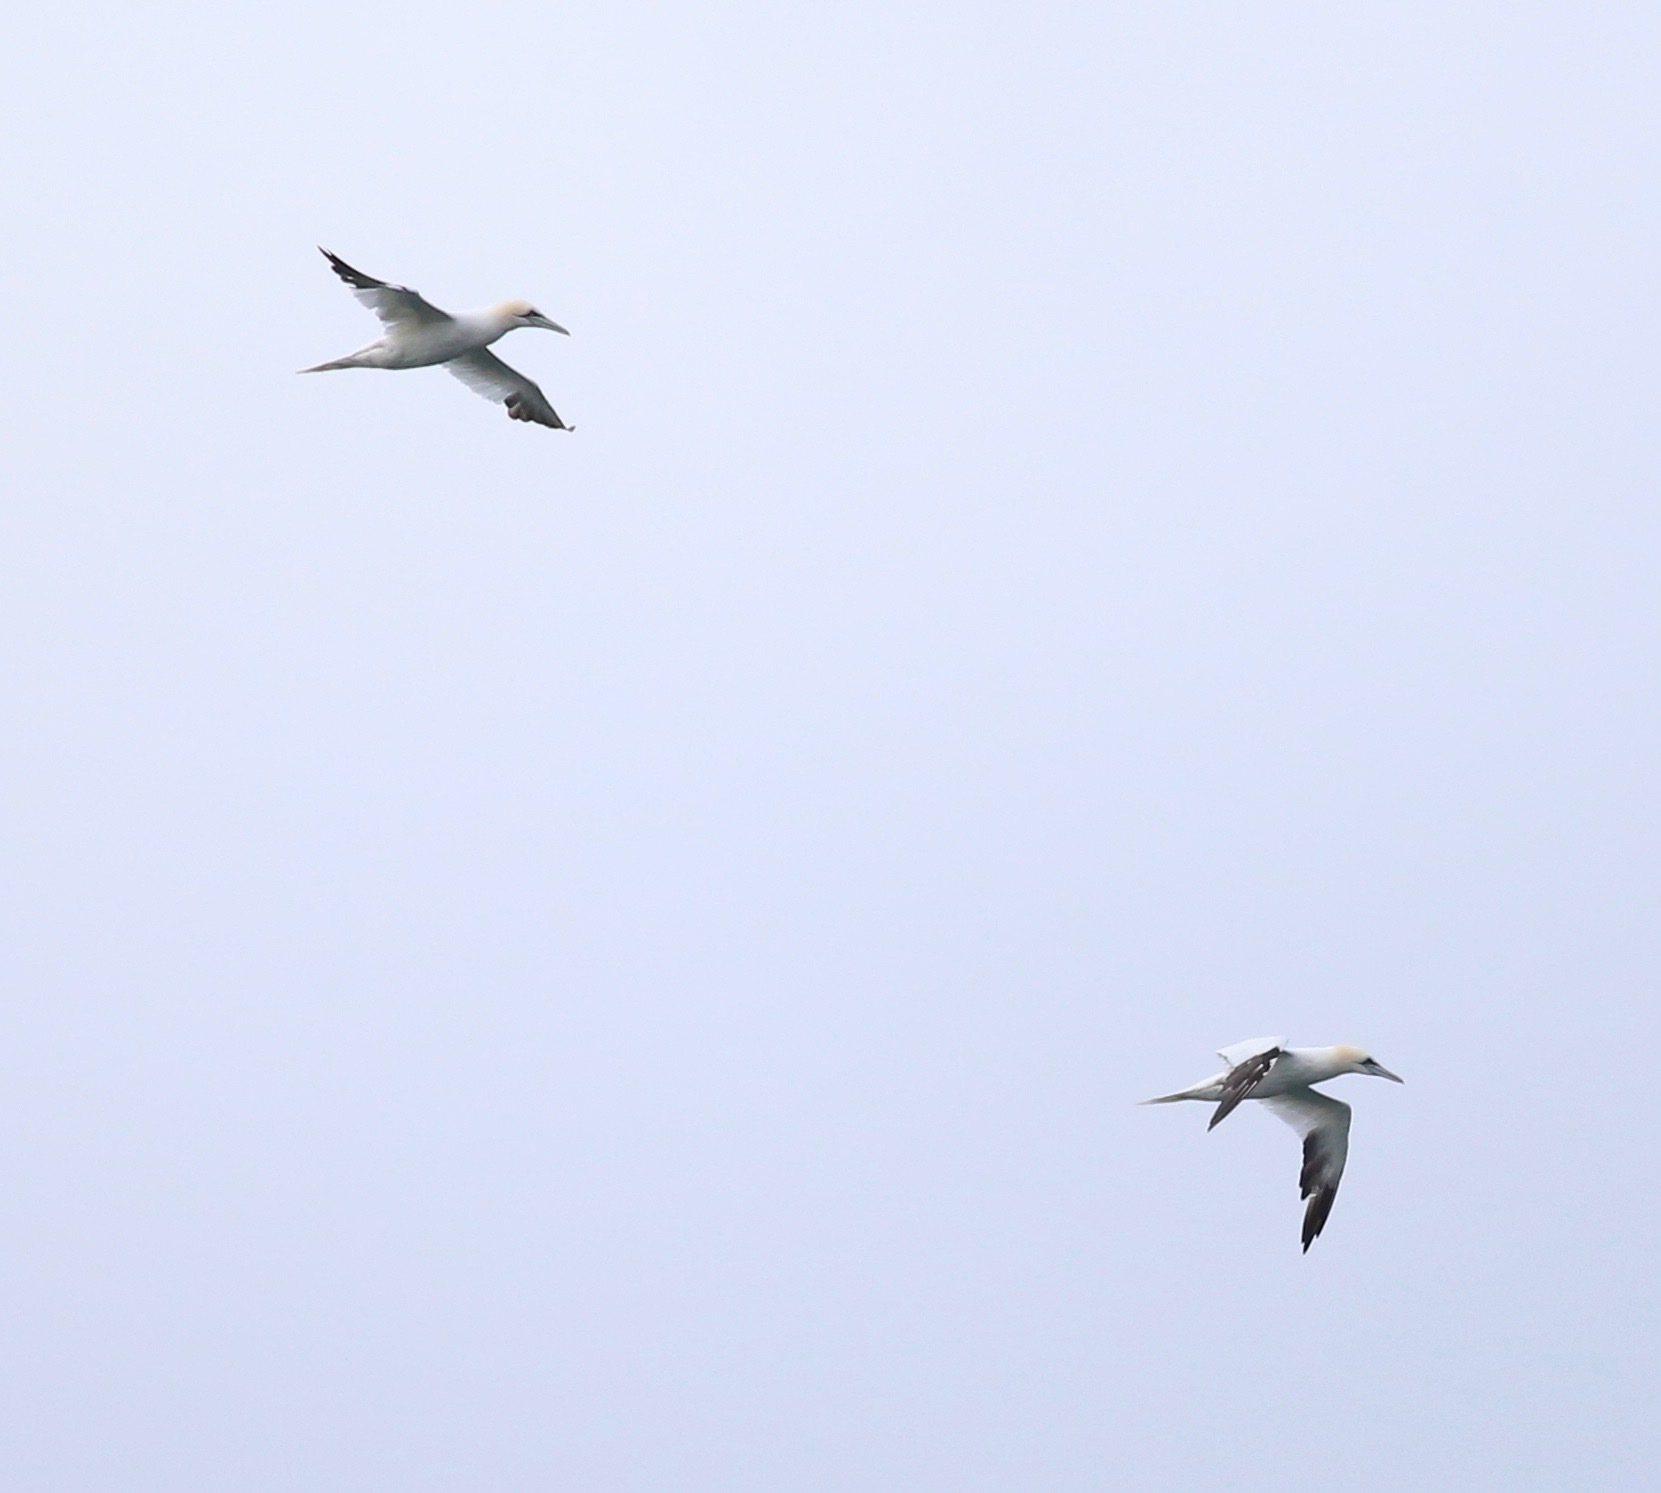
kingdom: Animalia
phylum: Chordata
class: Aves
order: Suliformes
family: Sulidae
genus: Morus
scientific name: Morus bassanus
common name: Northern gannet
